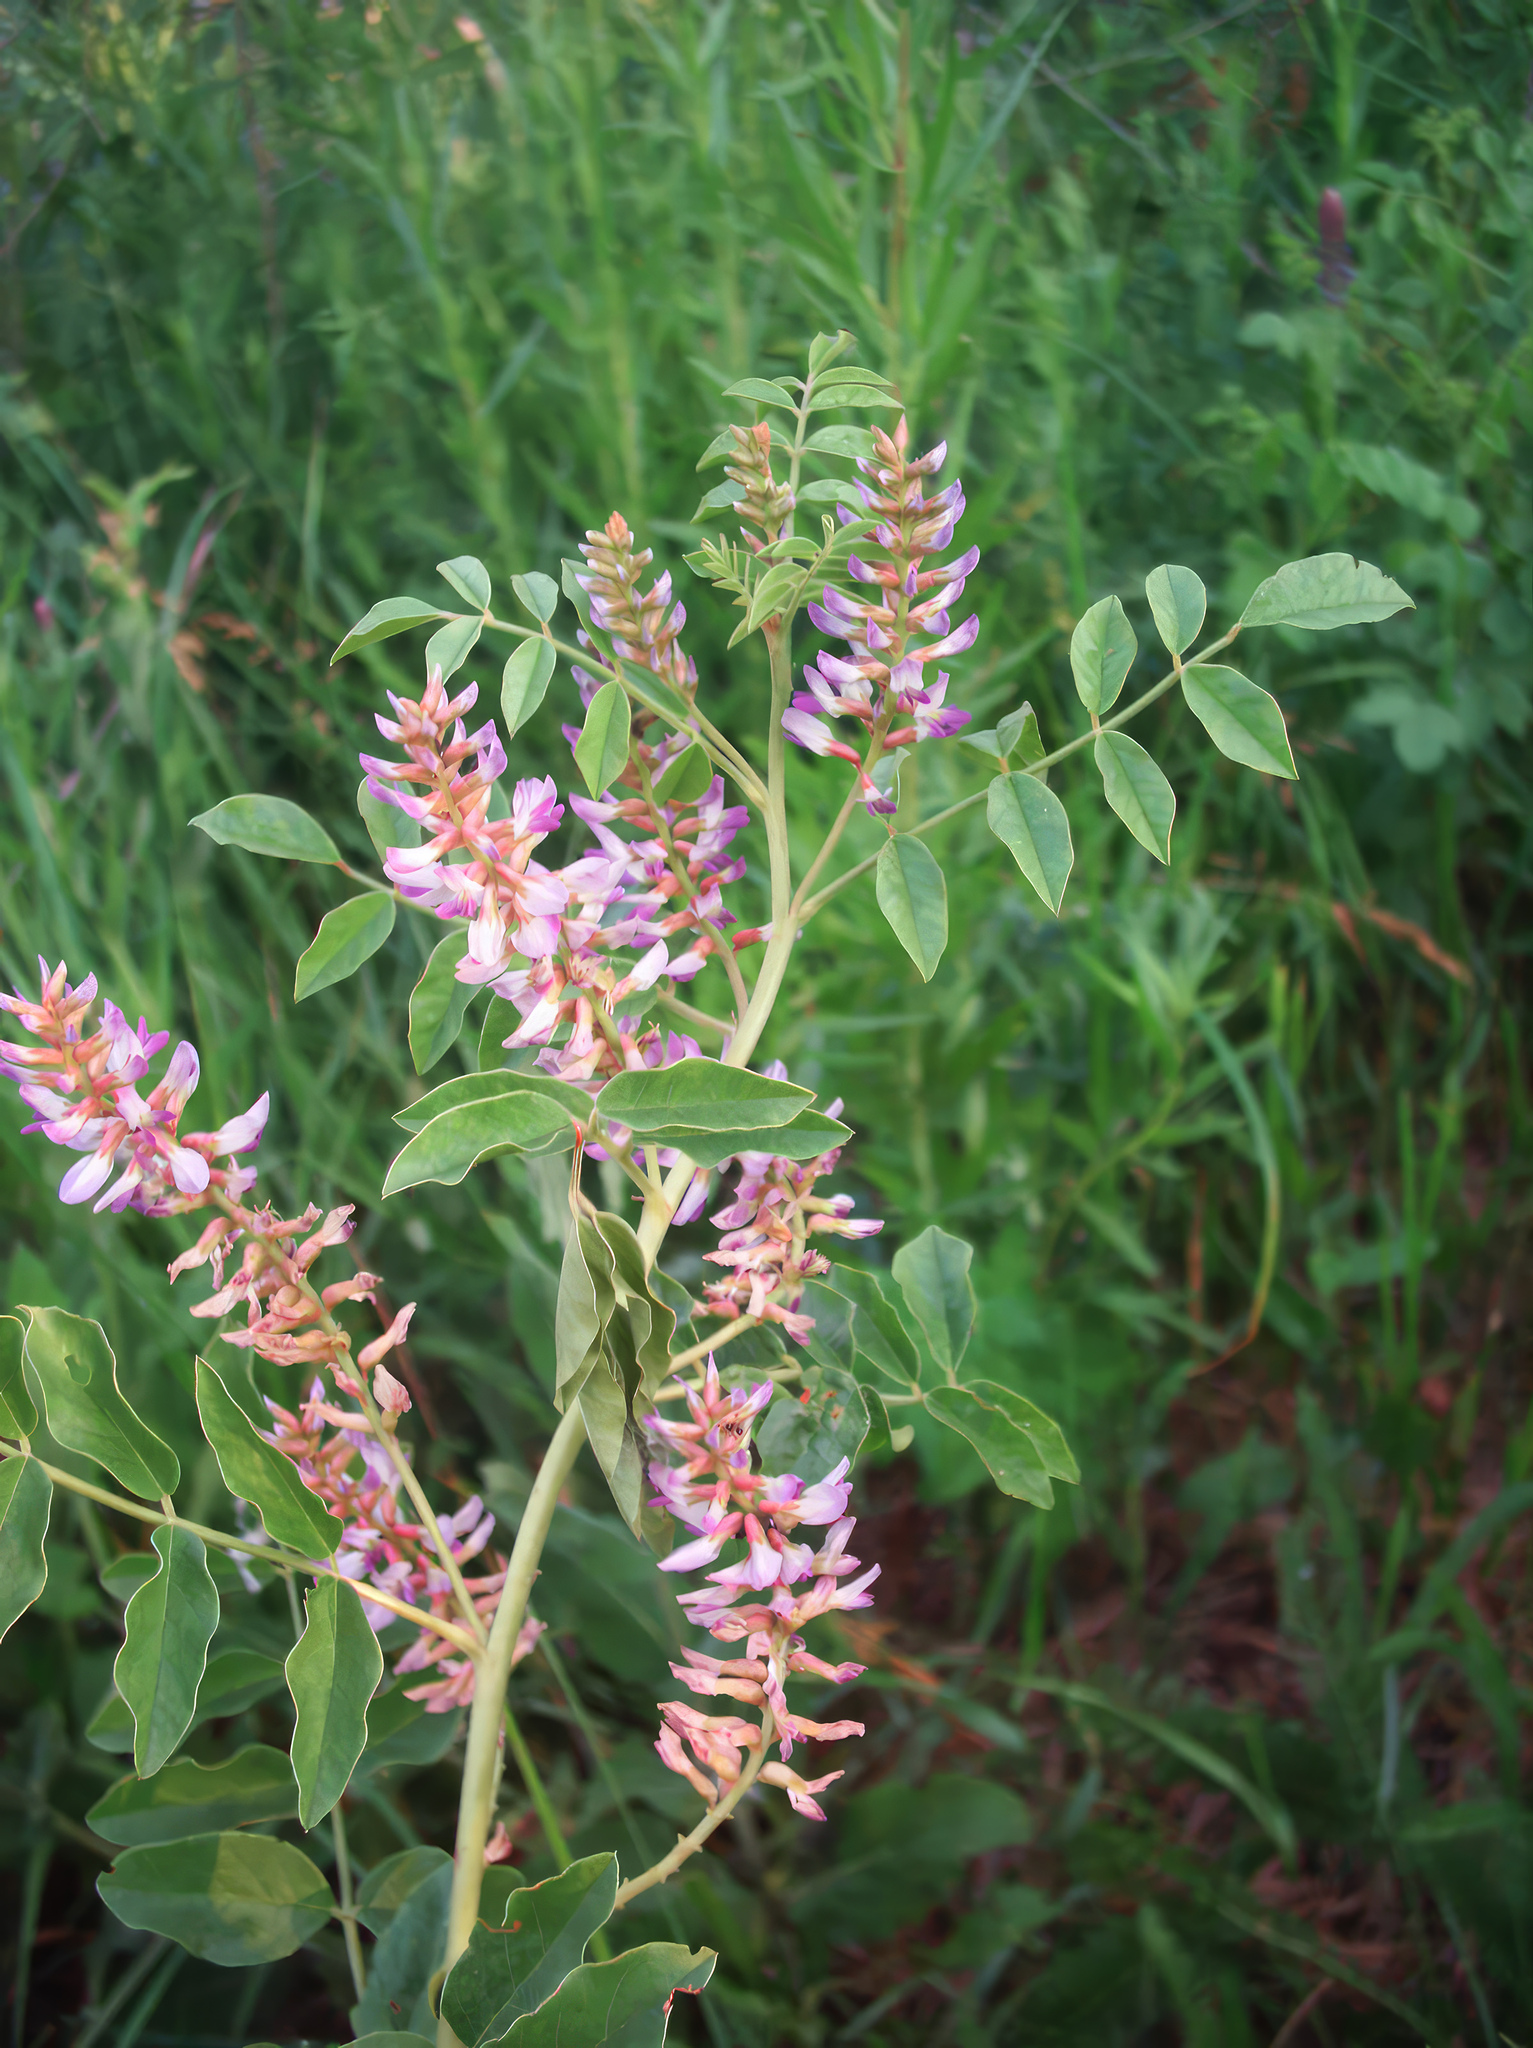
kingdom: Plantae
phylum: Tracheophyta
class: Magnoliopsida
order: Fabales
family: Fabaceae
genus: Glycyrrhiza
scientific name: Glycyrrhiza glabra
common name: Liquorice
